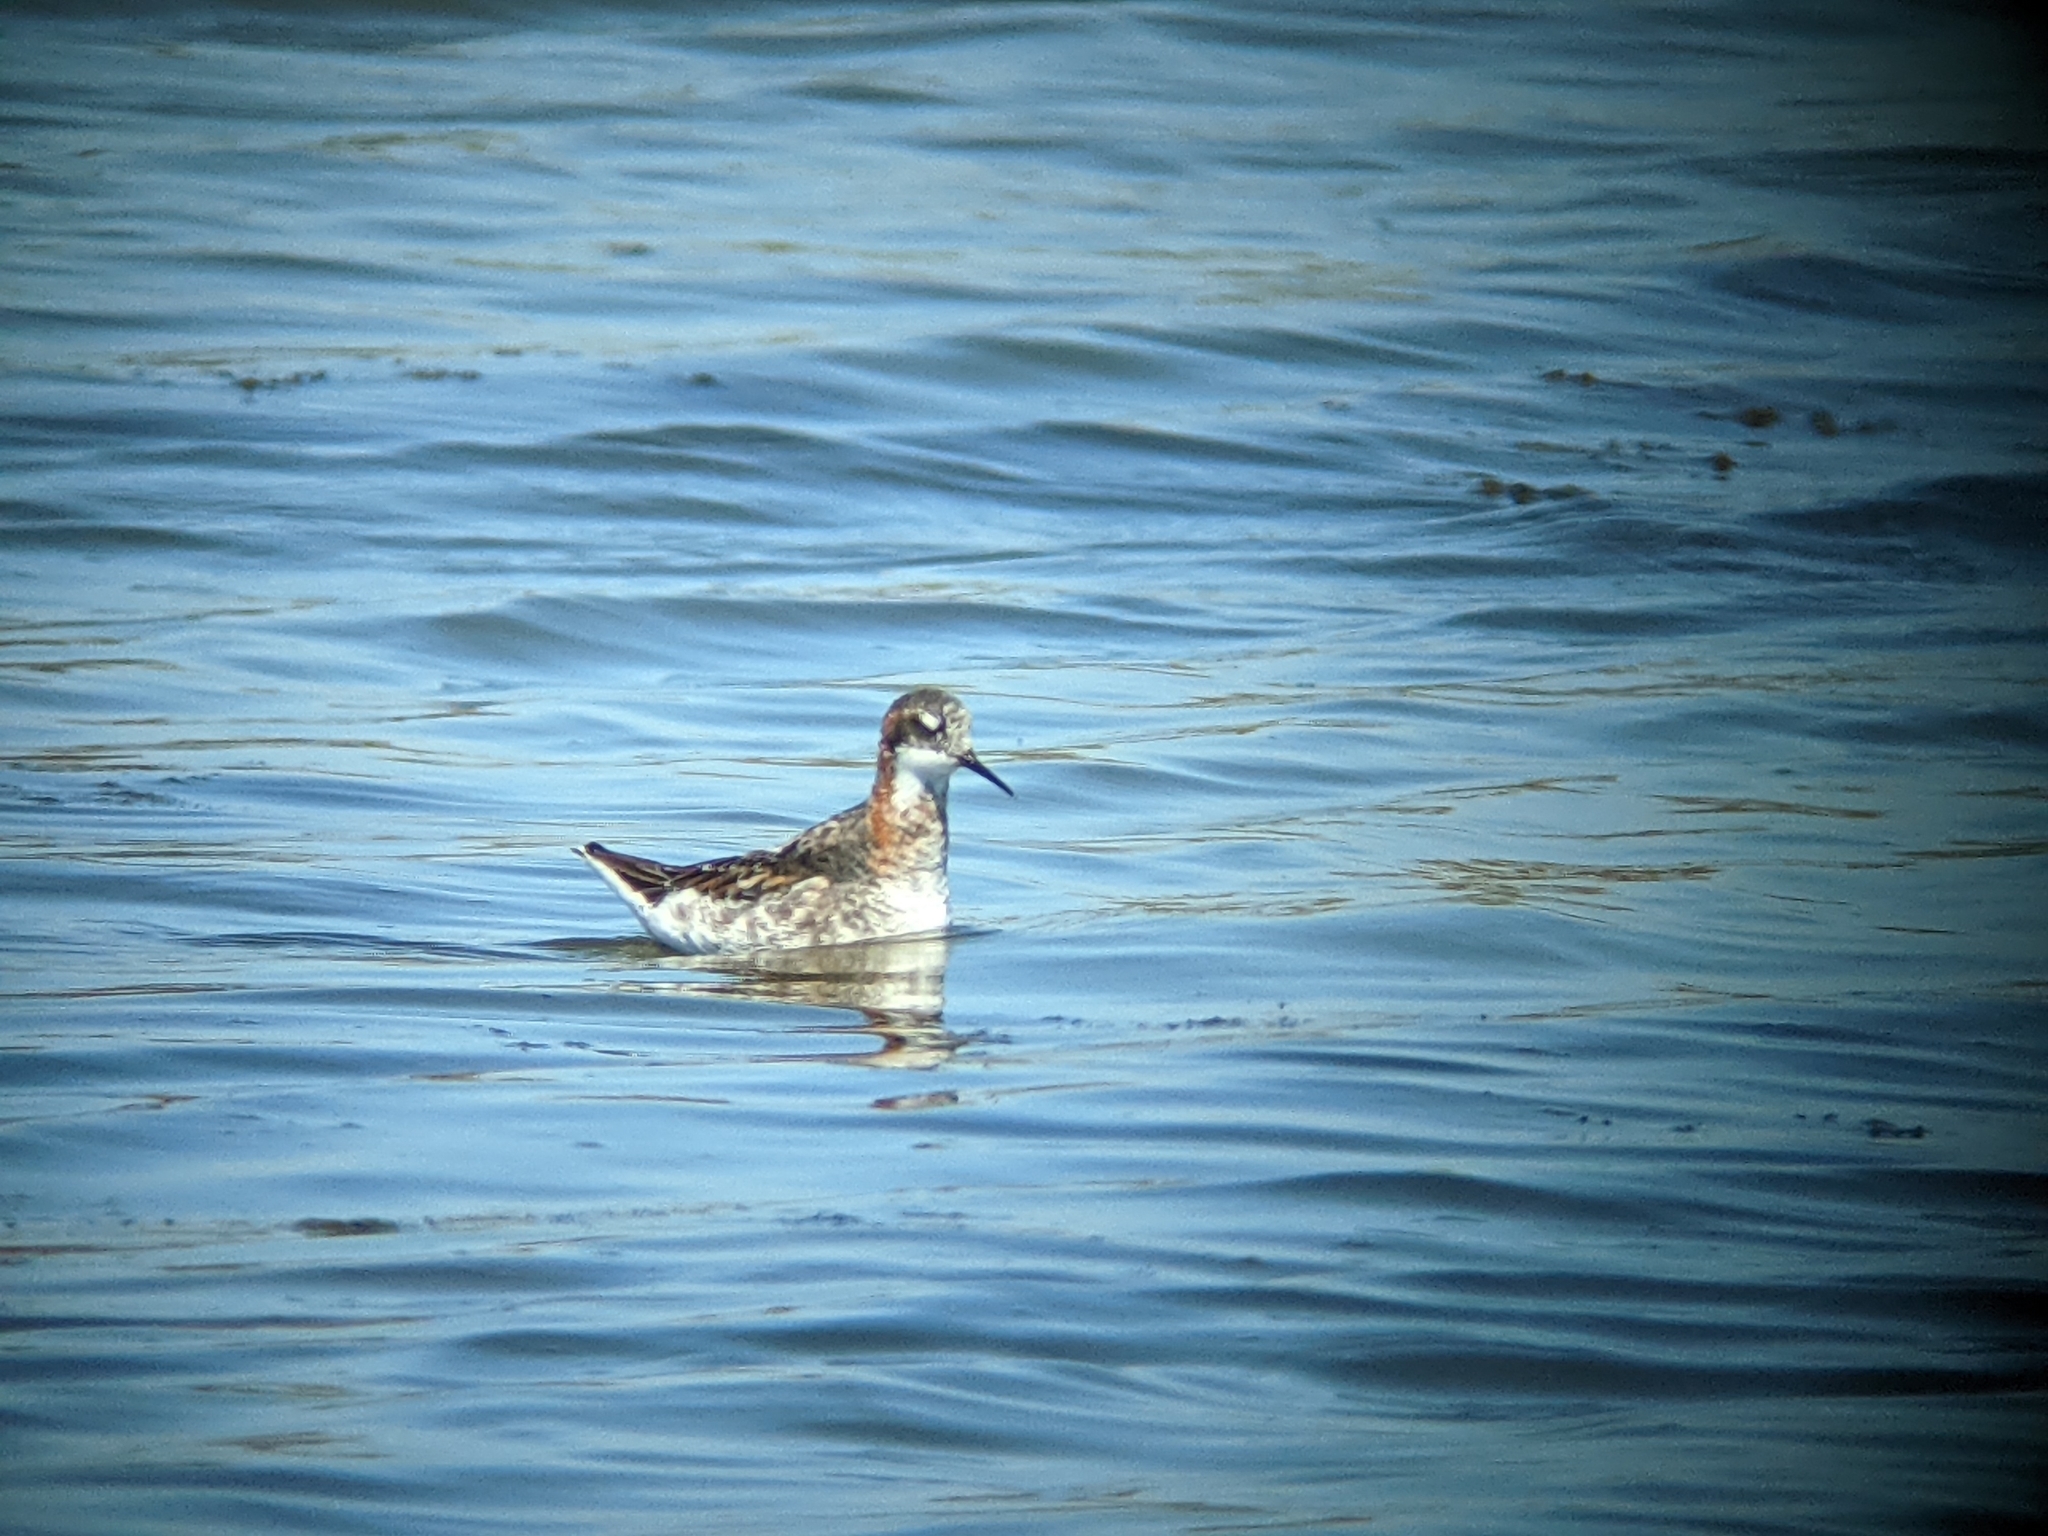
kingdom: Animalia
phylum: Chordata
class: Aves
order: Charadriiformes
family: Scolopacidae
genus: Phalaropus
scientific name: Phalaropus lobatus
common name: Red-necked phalarope
